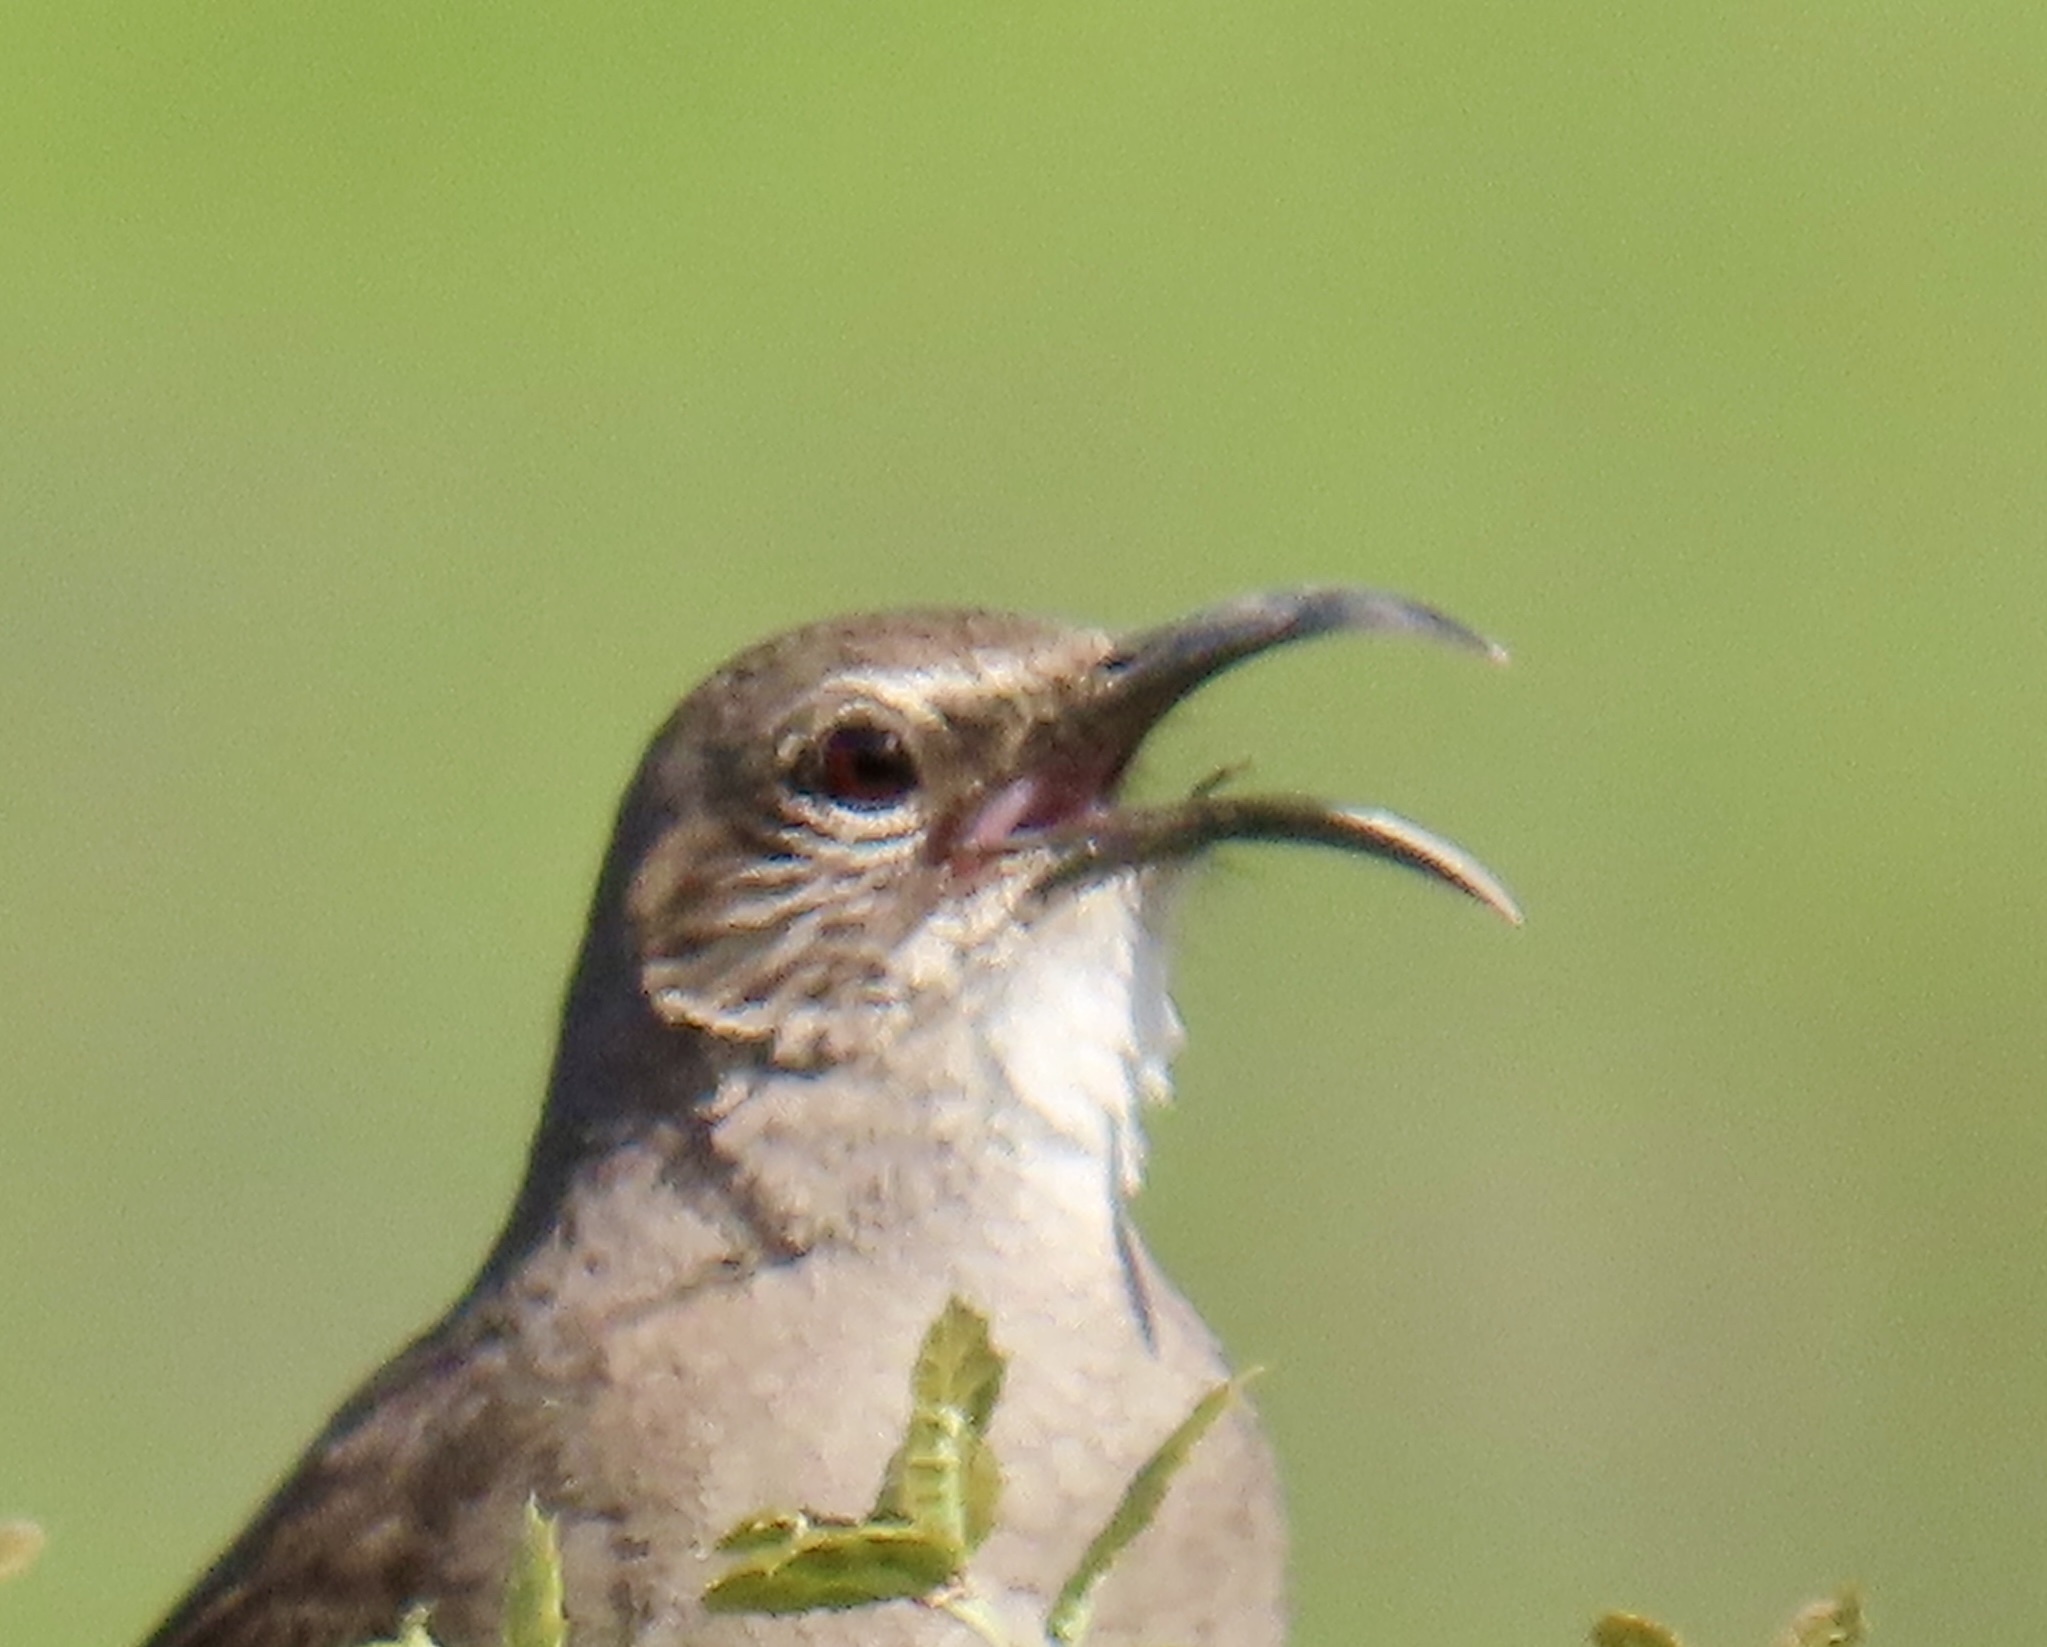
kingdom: Animalia
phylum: Chordata
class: Aves
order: Passeriformes
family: Mimidae
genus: Toxostoma
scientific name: Toxostoma redivivum
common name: California thrasher
